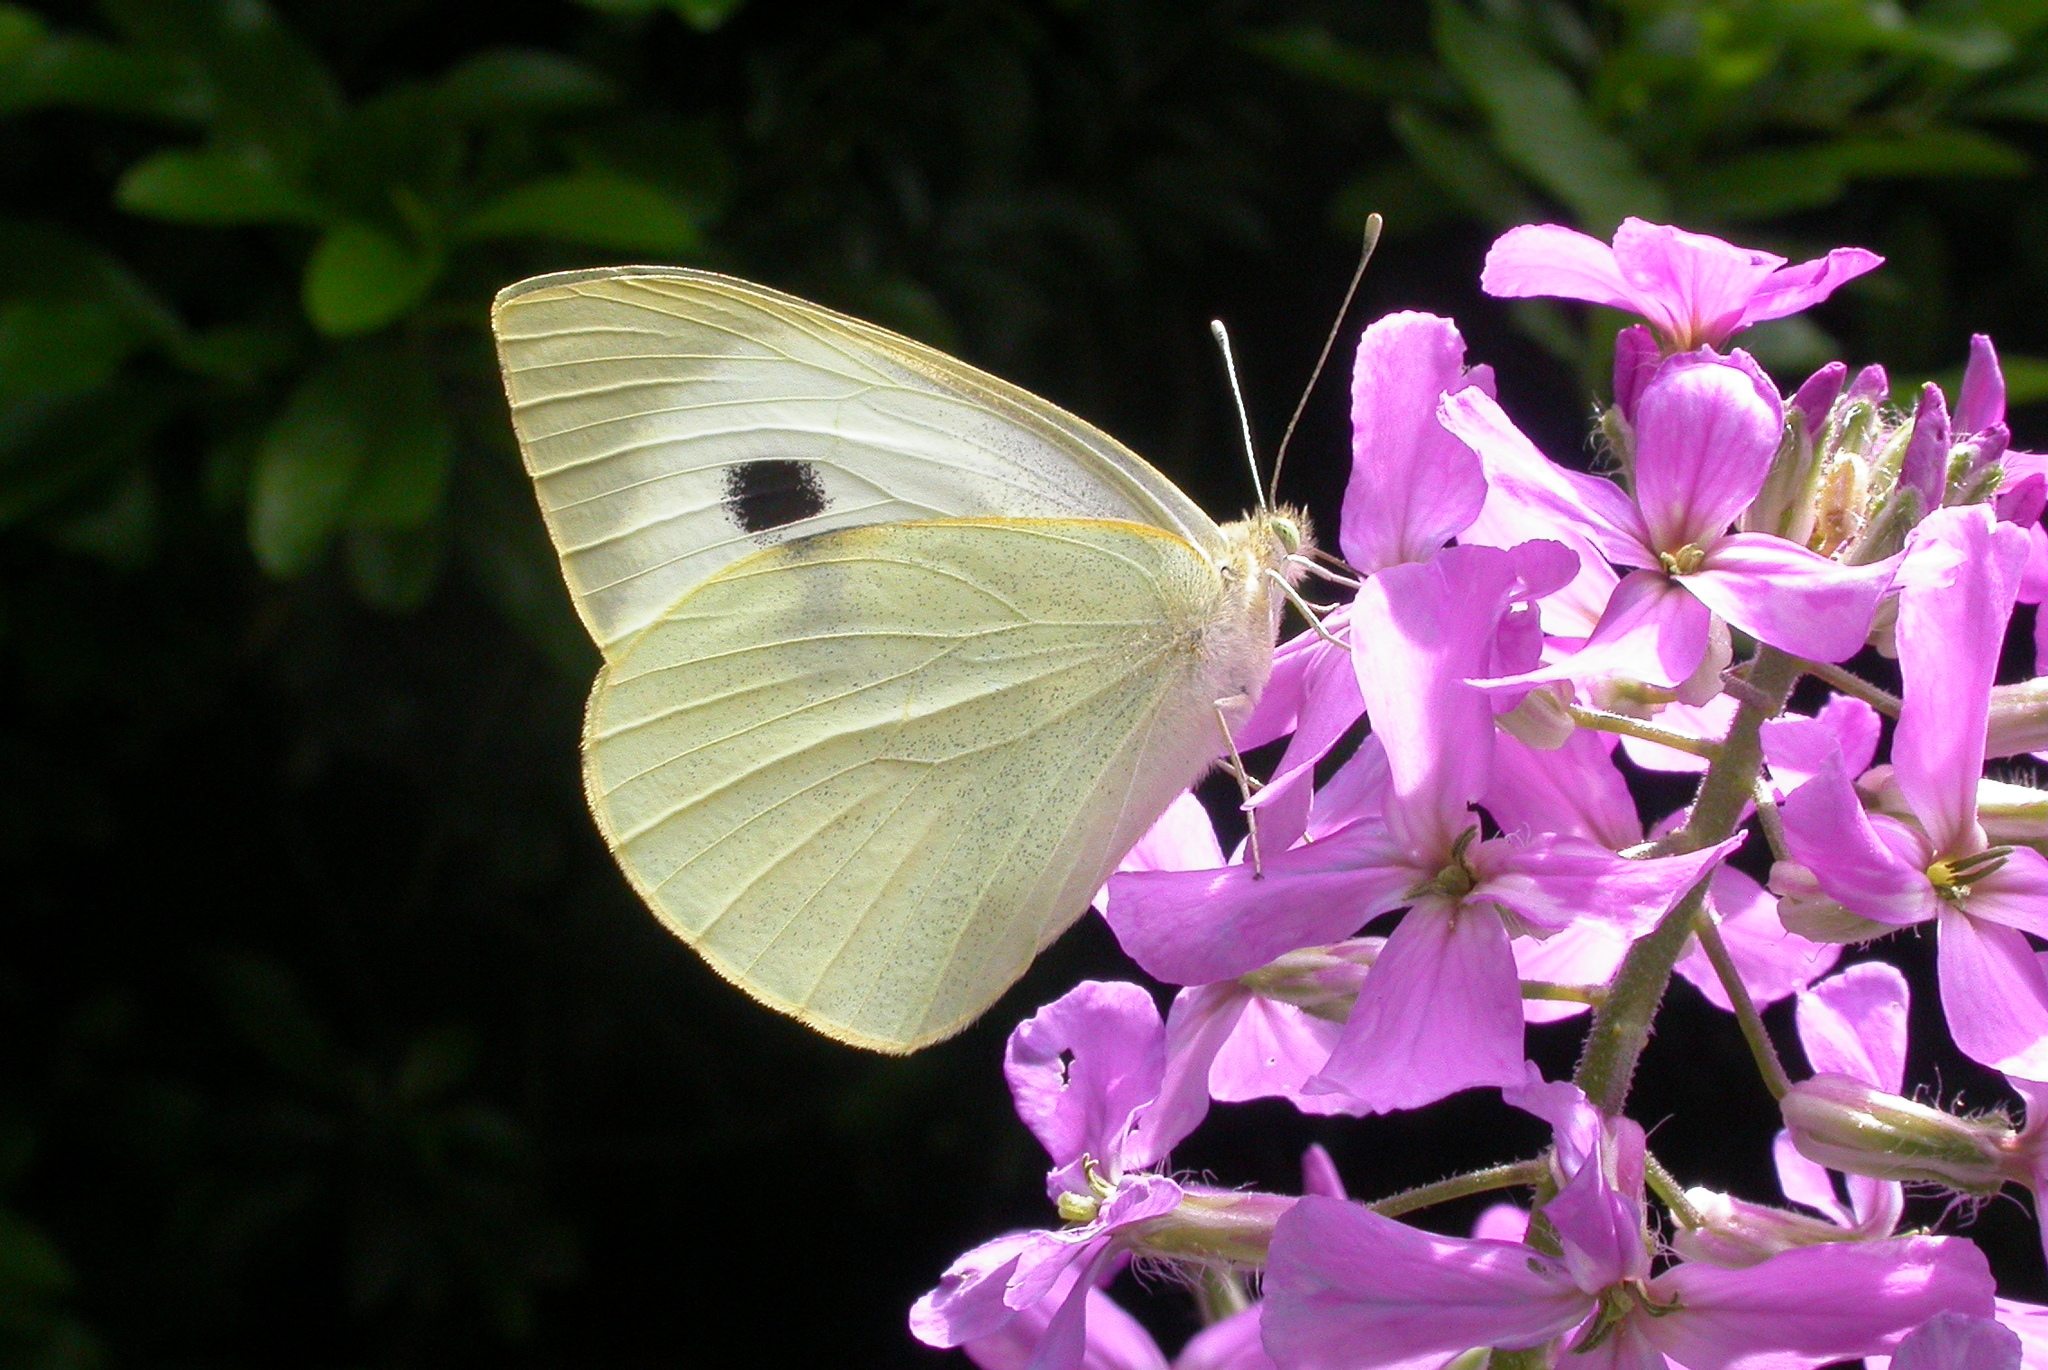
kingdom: Animalia
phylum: Arthropoda
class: Insecta
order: Lepidoptera
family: Pieridae
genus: Pieris
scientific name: Pieris brassicae
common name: Large white
